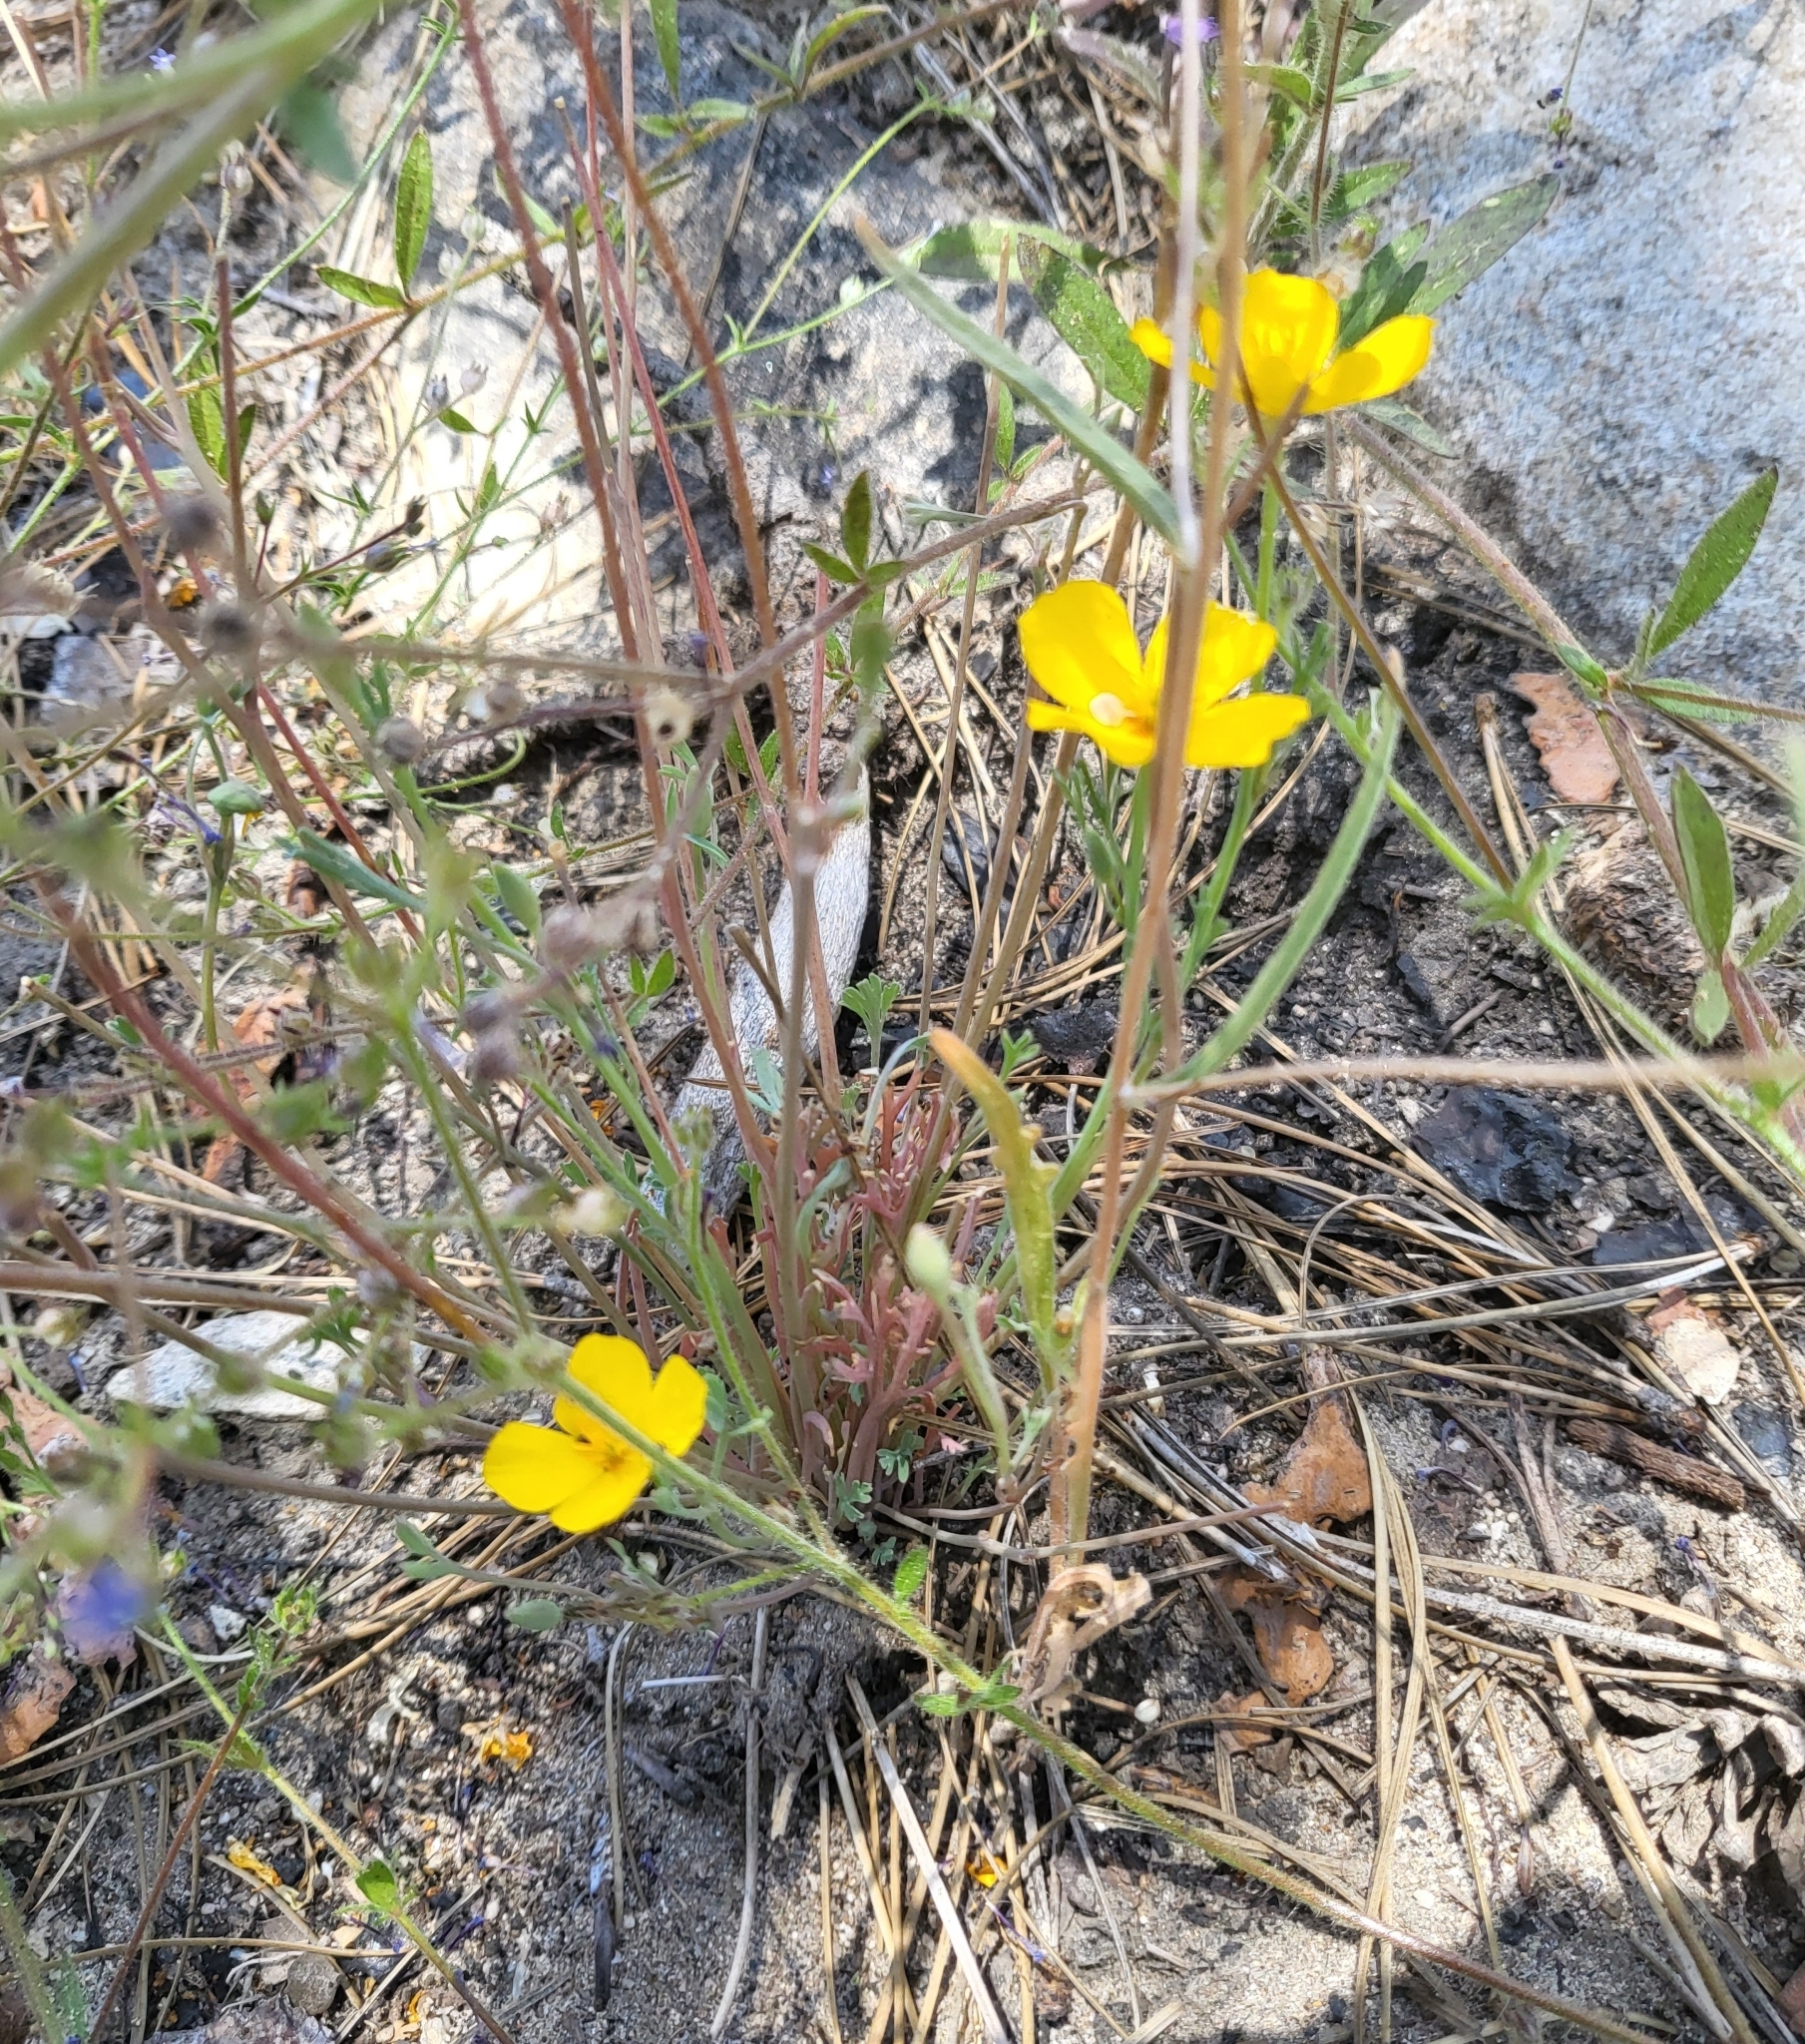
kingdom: Plantae
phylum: Tracheophyta
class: Magnoliopsida
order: Ranunculales
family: Papaveraceae
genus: Eschscholzia
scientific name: Eschscholzia caespitosa
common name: Tufted california-poppy
